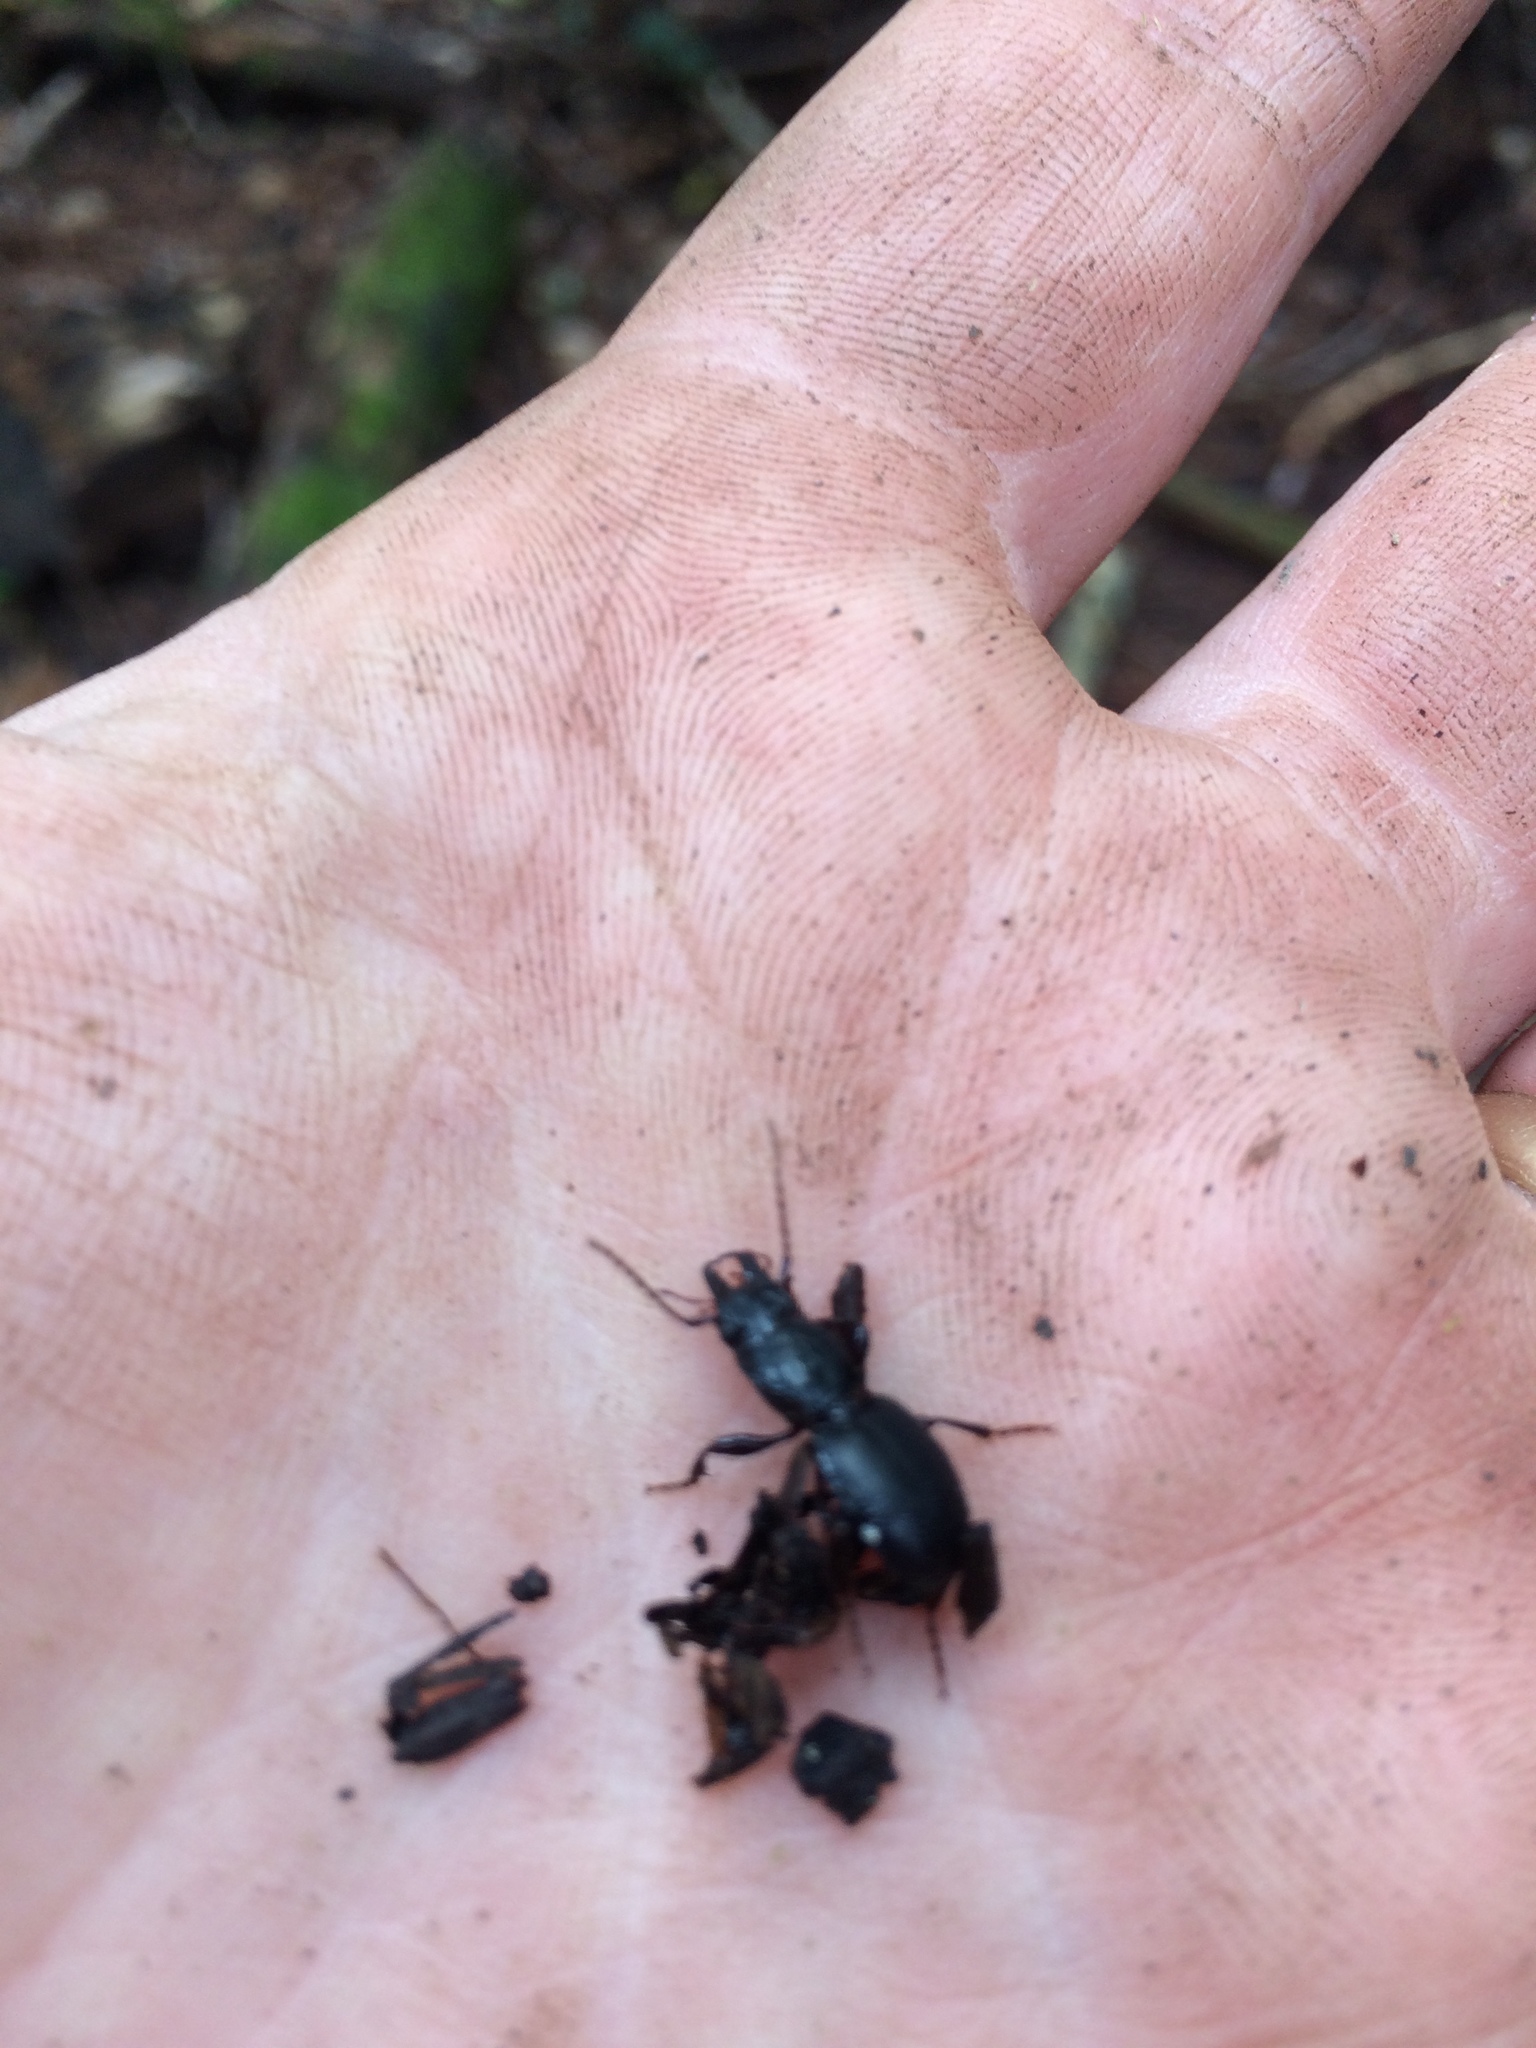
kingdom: Animalia
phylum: Arthropoda
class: Insecta
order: Coleoptera
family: Carabidae
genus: Promecognathus
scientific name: Promecognathus
